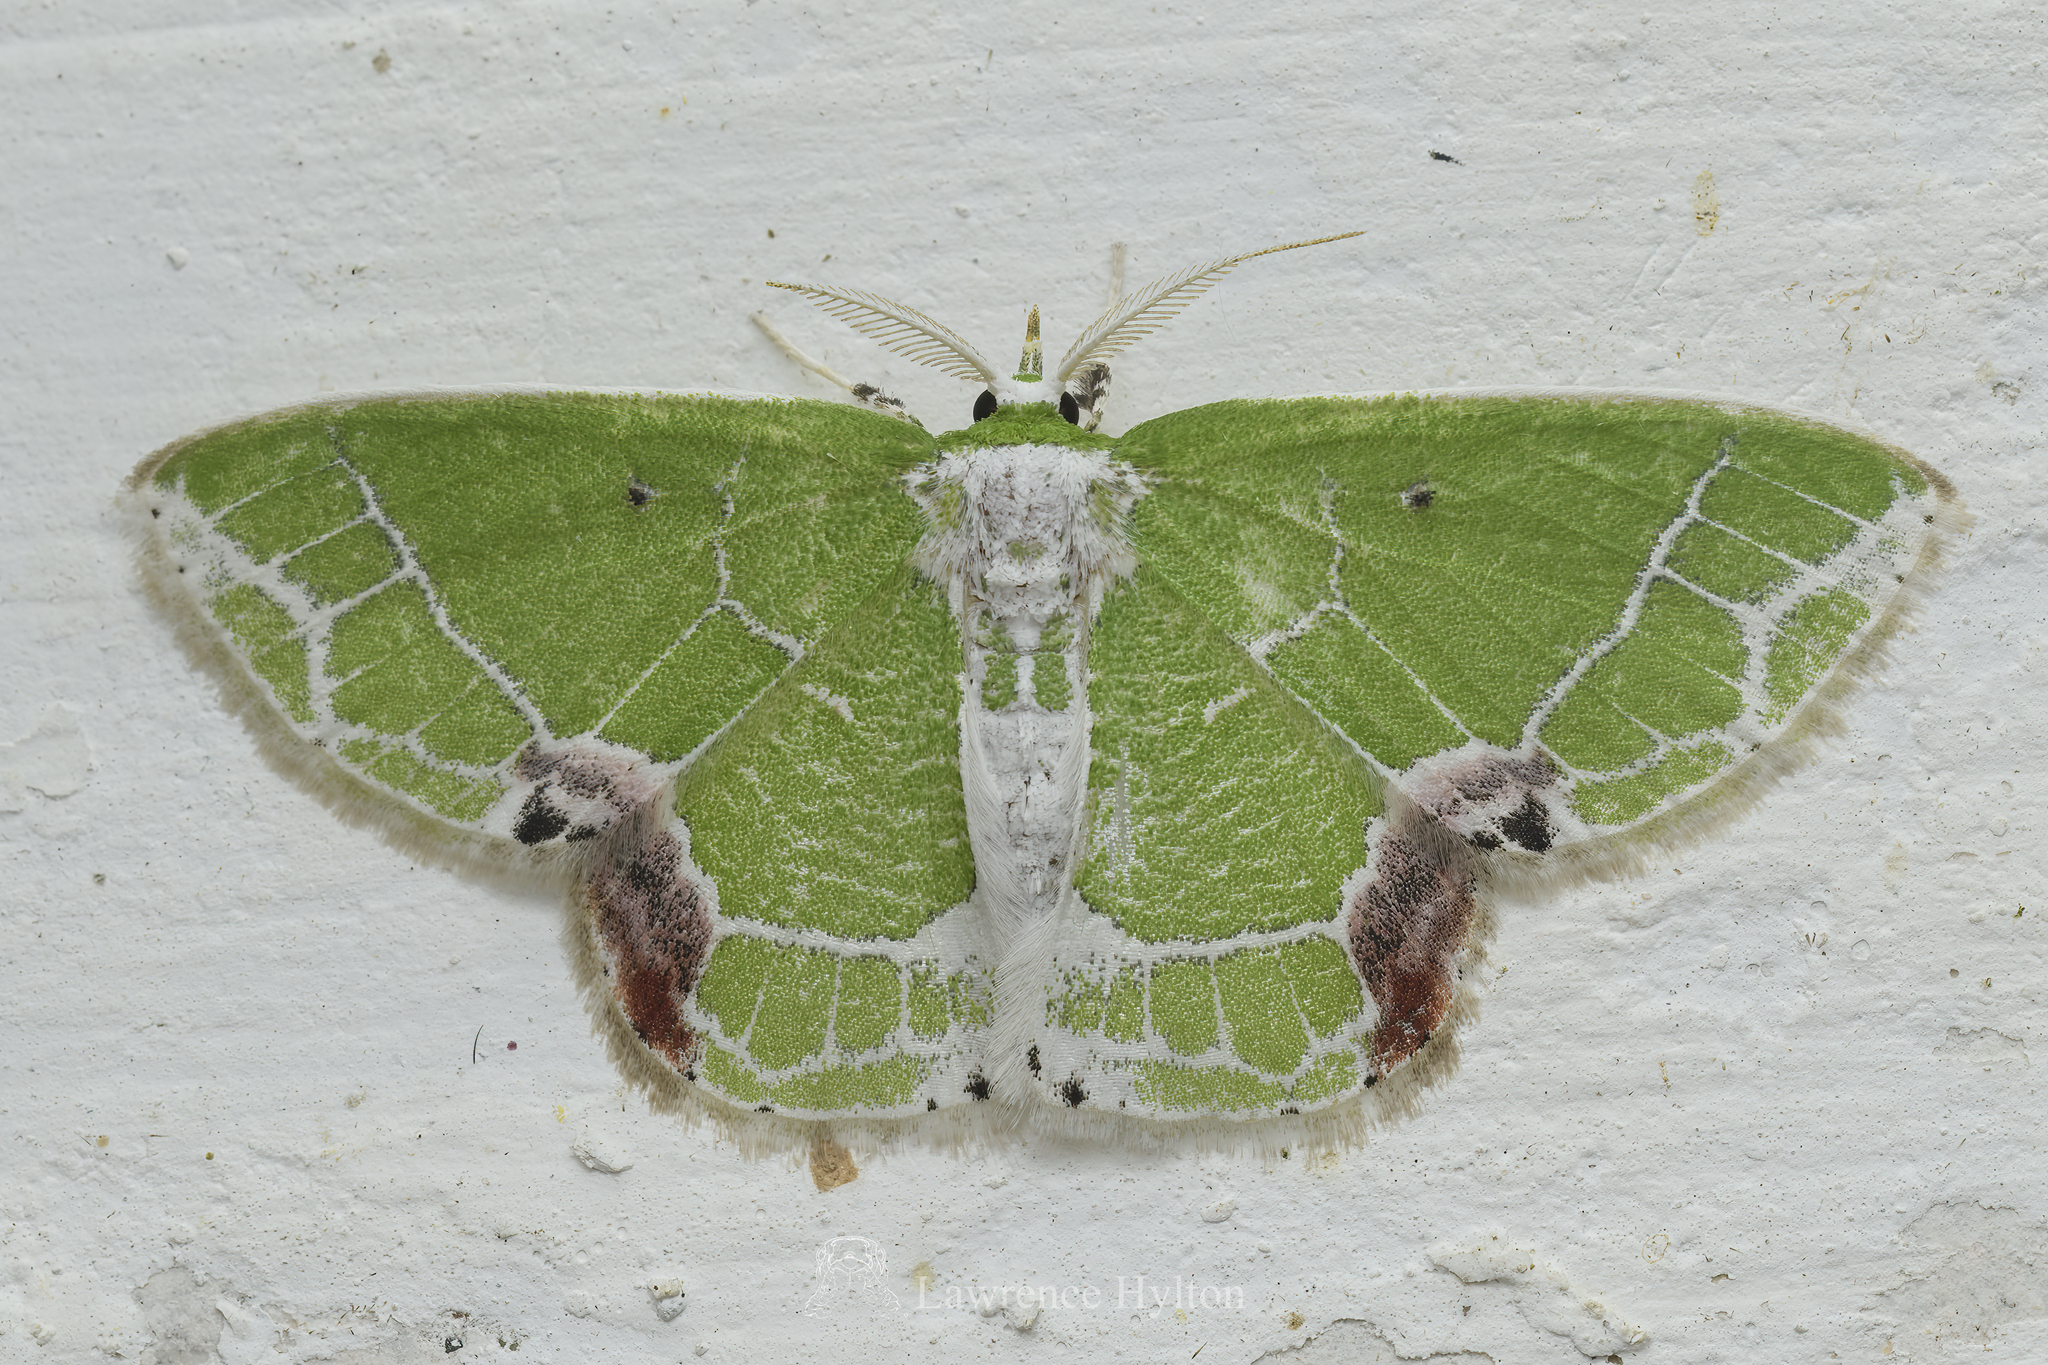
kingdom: Animalia
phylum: Arthropoda
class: Insecta
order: Lepidoptera
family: Geometridae
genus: Protuliocnemis
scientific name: Protuliocnemis castalaria
